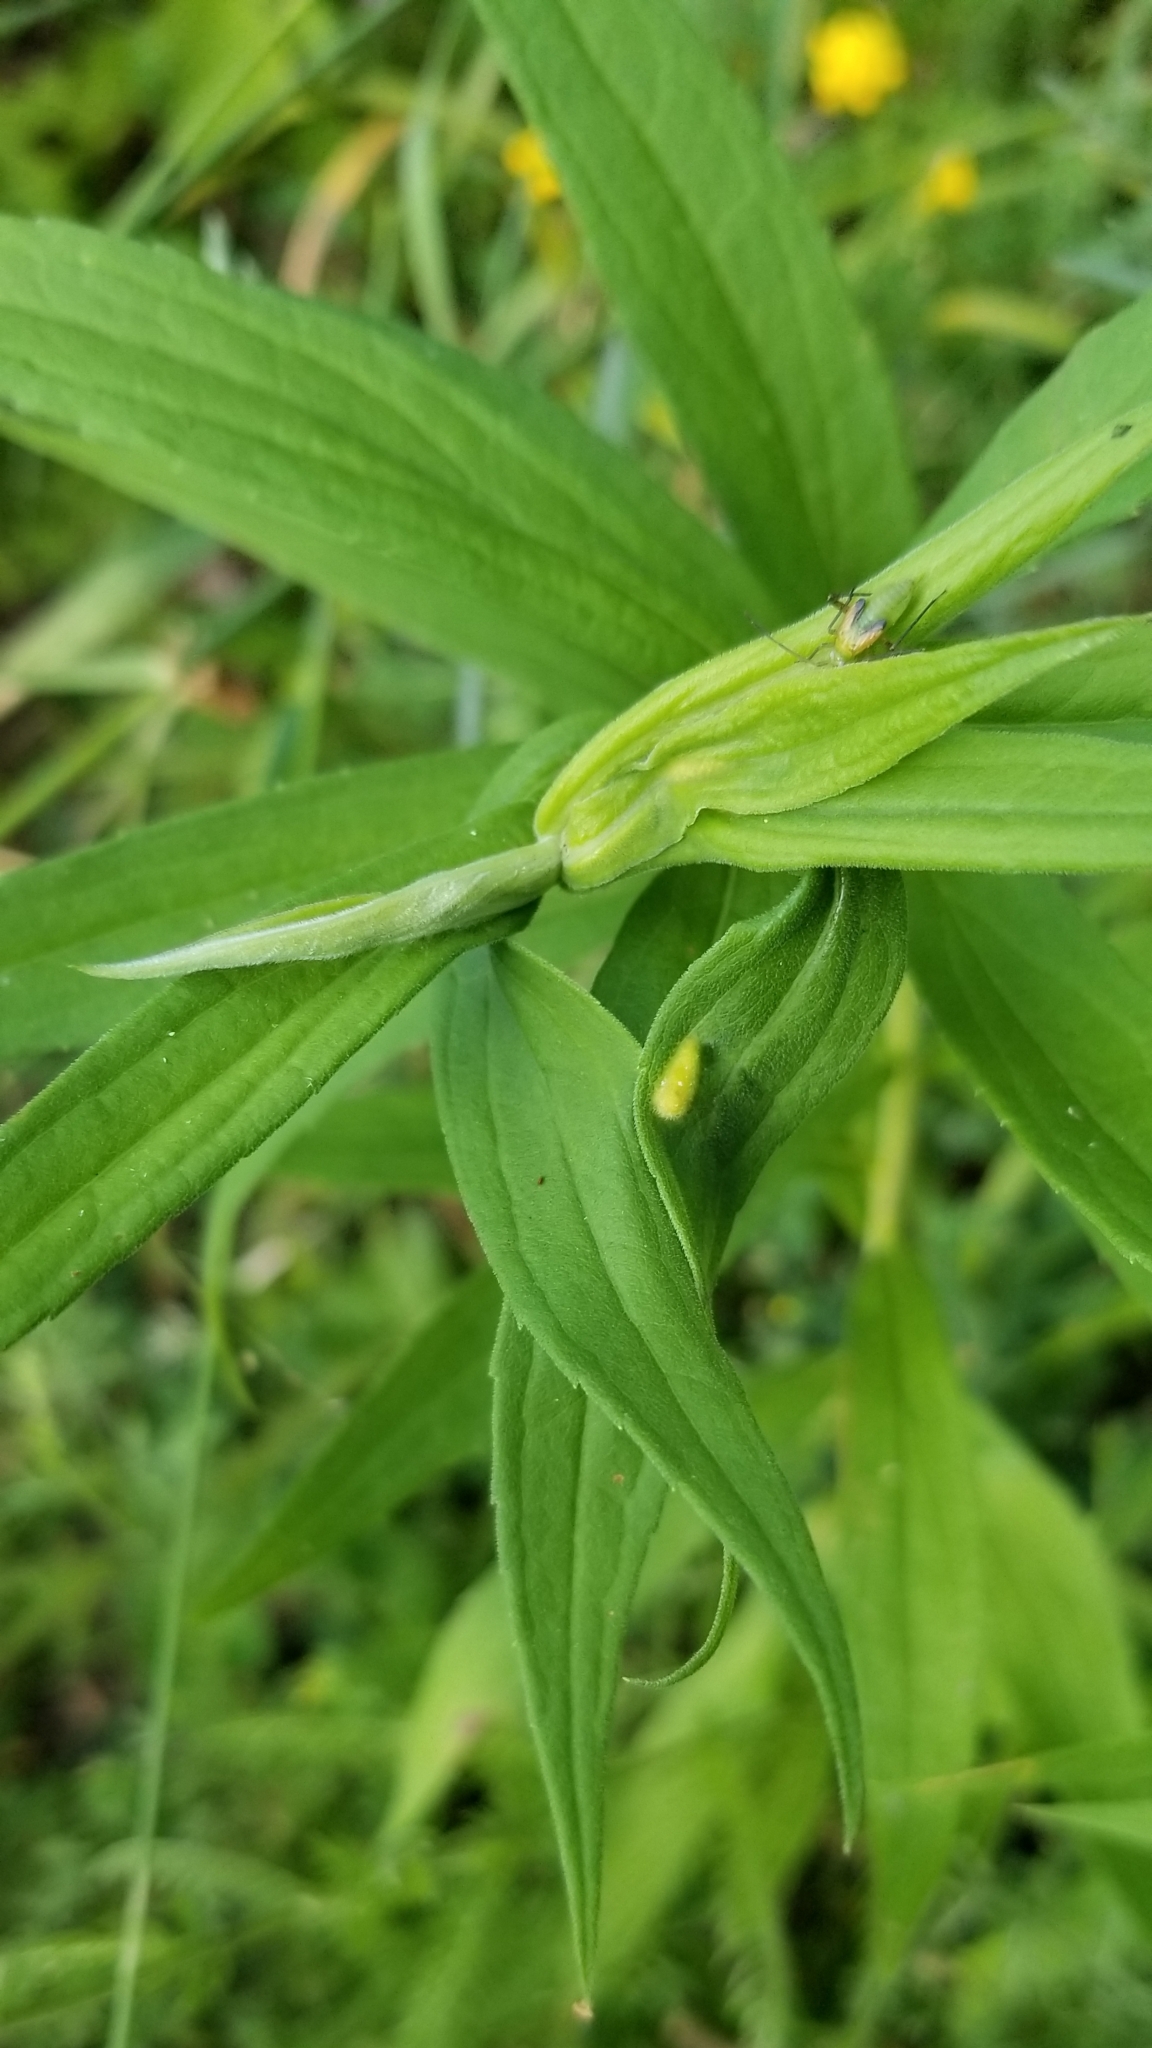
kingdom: Animalia
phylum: Arthropoda
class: Insecta
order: Diptera
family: Cecidomyiidae
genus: Asphondylia
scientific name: Asphondylia solidaginis
